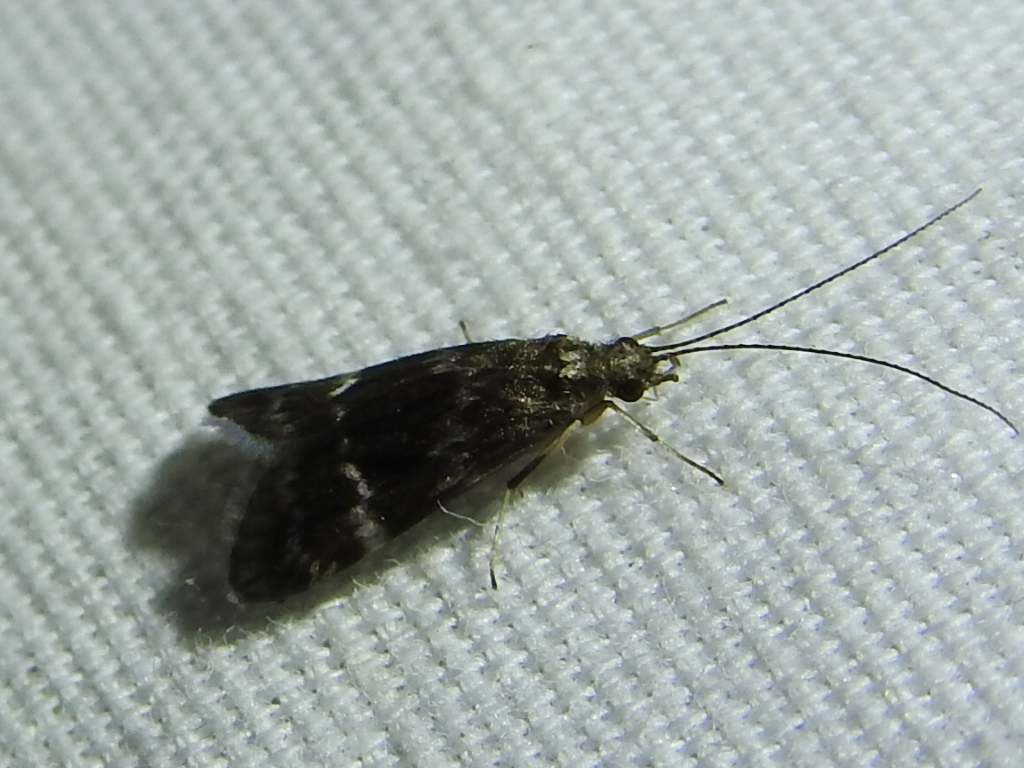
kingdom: Animalia
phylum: Arthropoda
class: Insecta
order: Trichoptera
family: Hydropsychidae
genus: Smicridea
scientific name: Smicridea fasciatella
